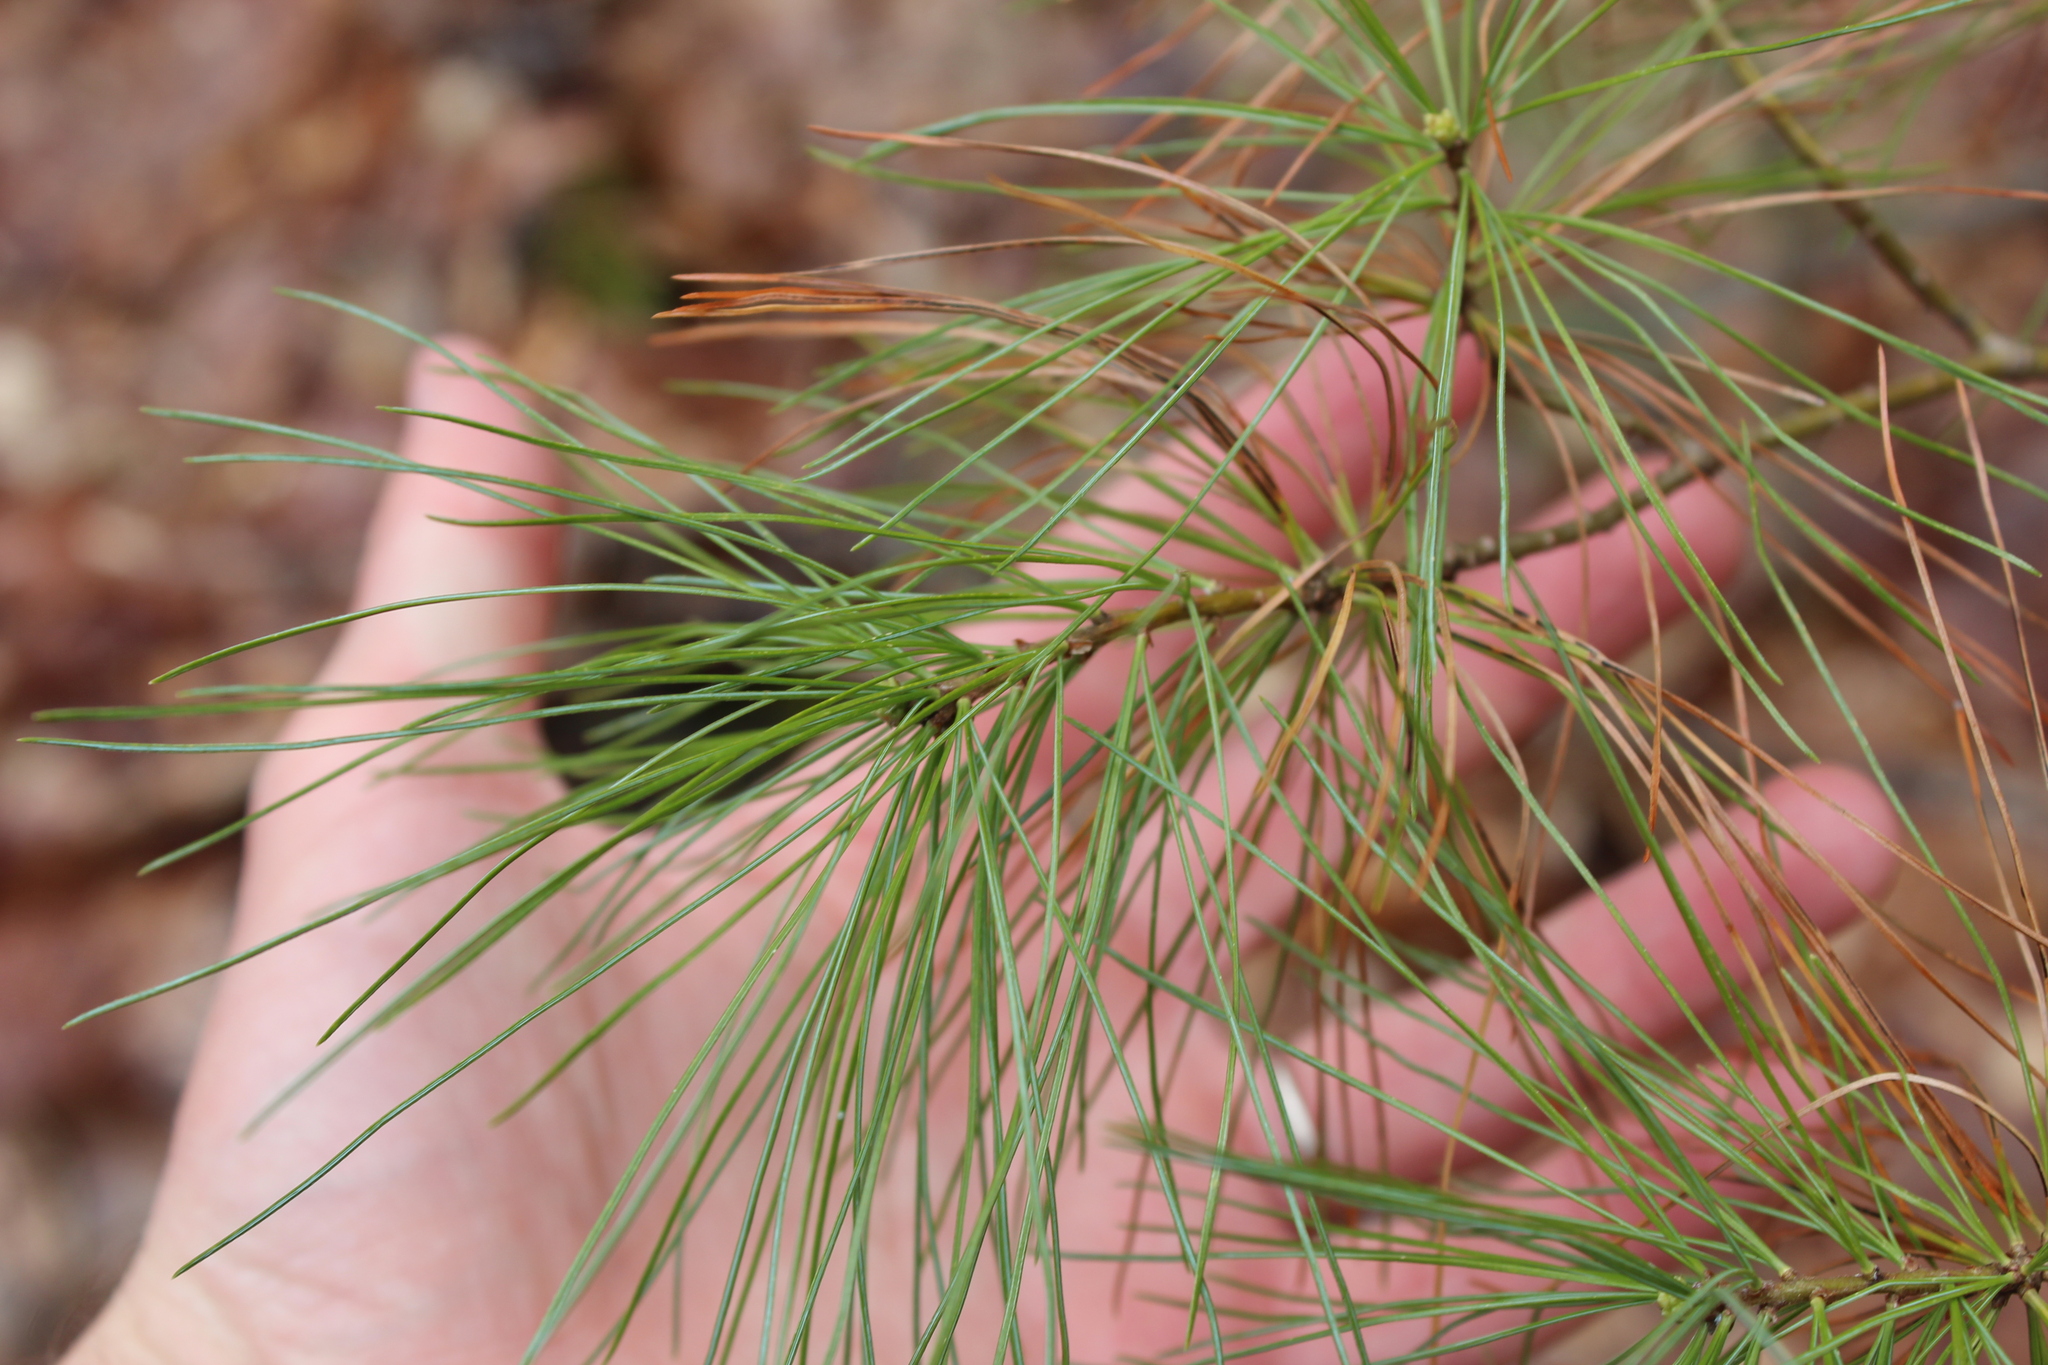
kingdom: Plantae
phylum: Tracheophyta
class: Pinopsida
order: Pinales
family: Pinaceae
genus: Pinus
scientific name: Pinus strobus
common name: Weymouth pine
